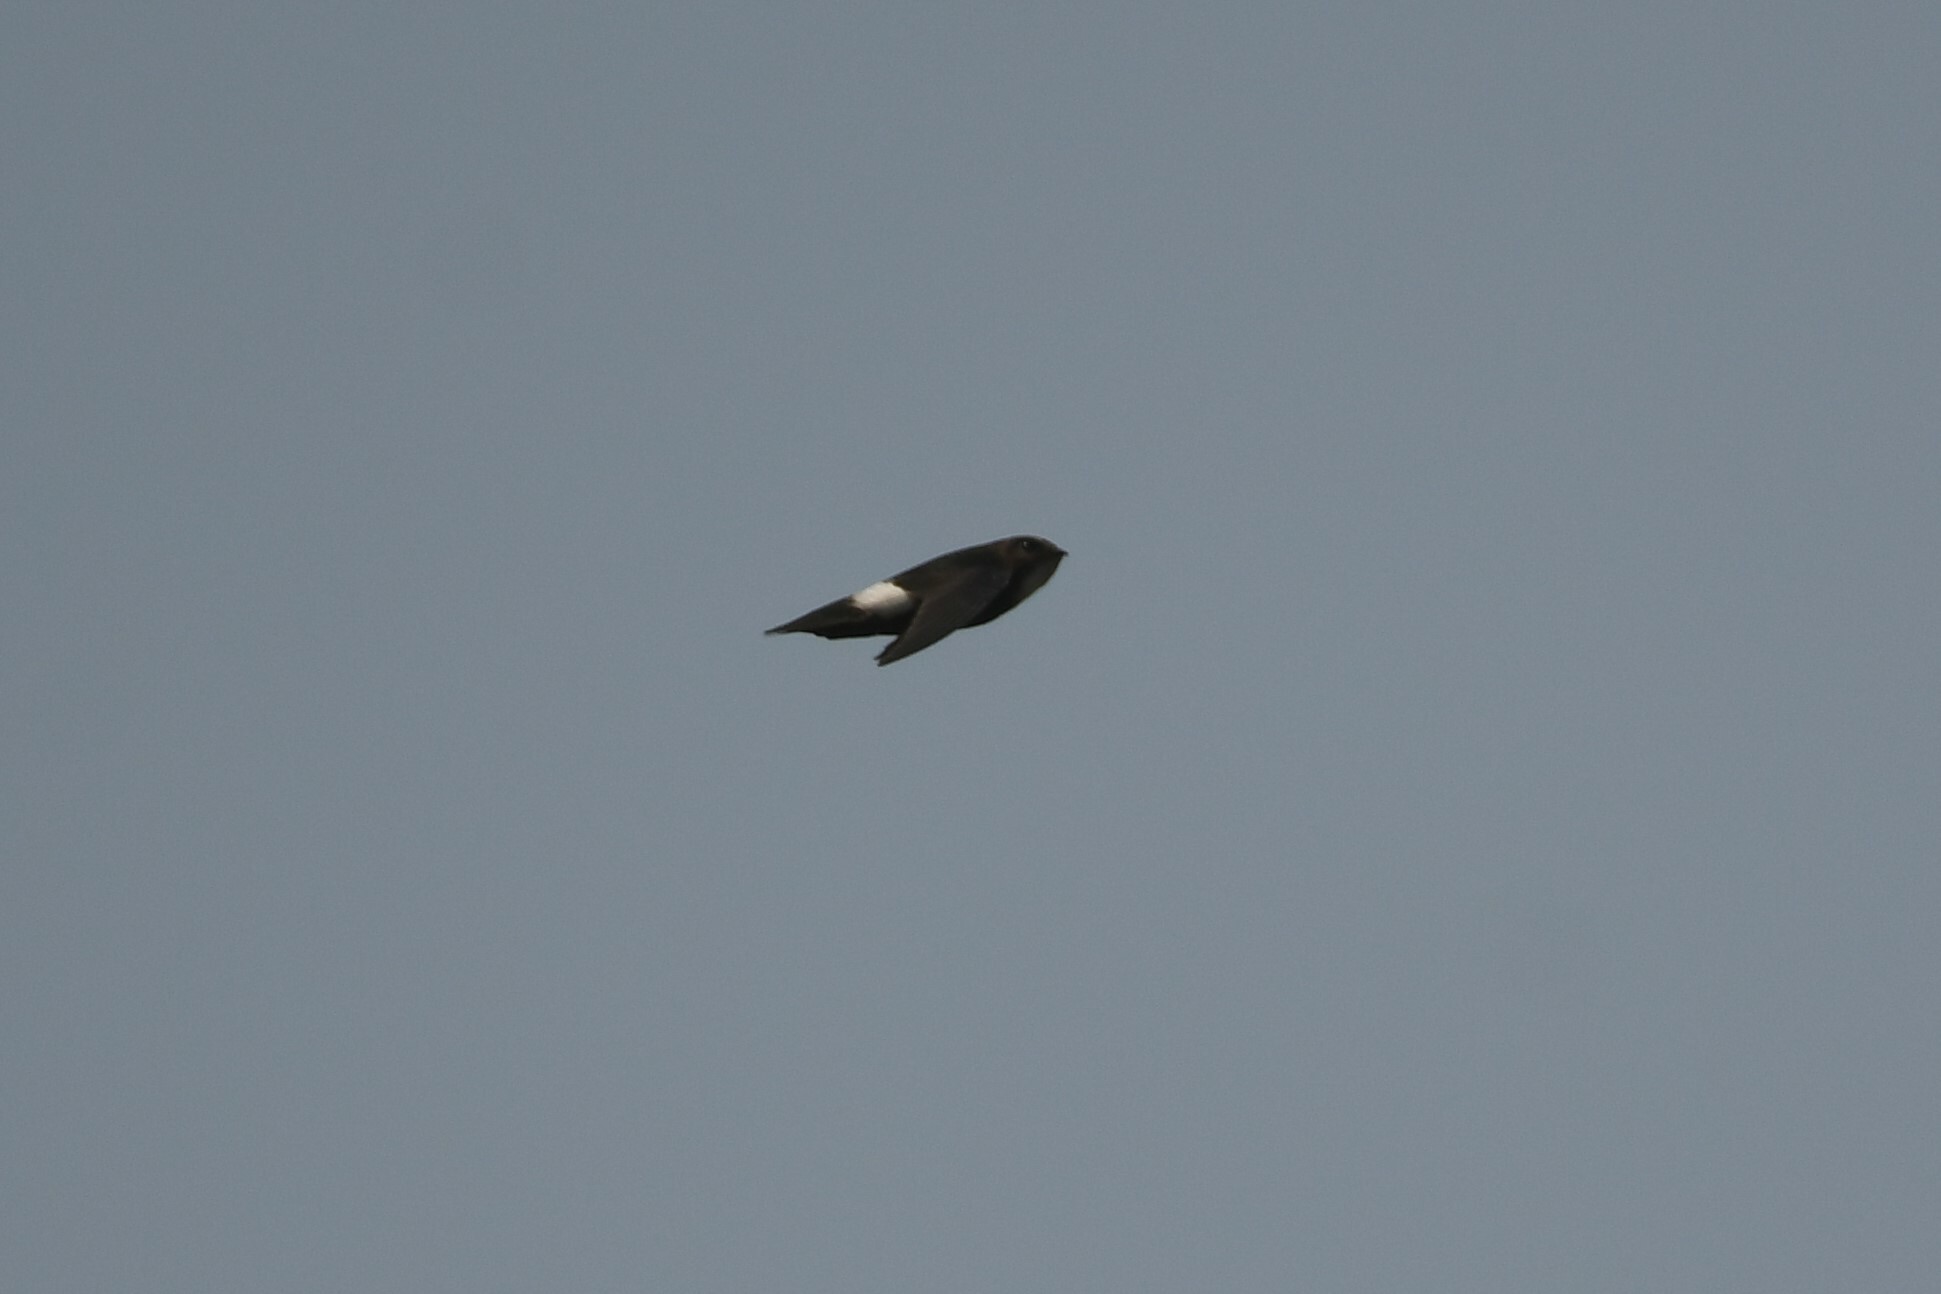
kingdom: Animalia
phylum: Chordata
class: Aves
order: Apodiformes
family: Apodidae
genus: Apus
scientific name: Apus nipalensis
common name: House swift
